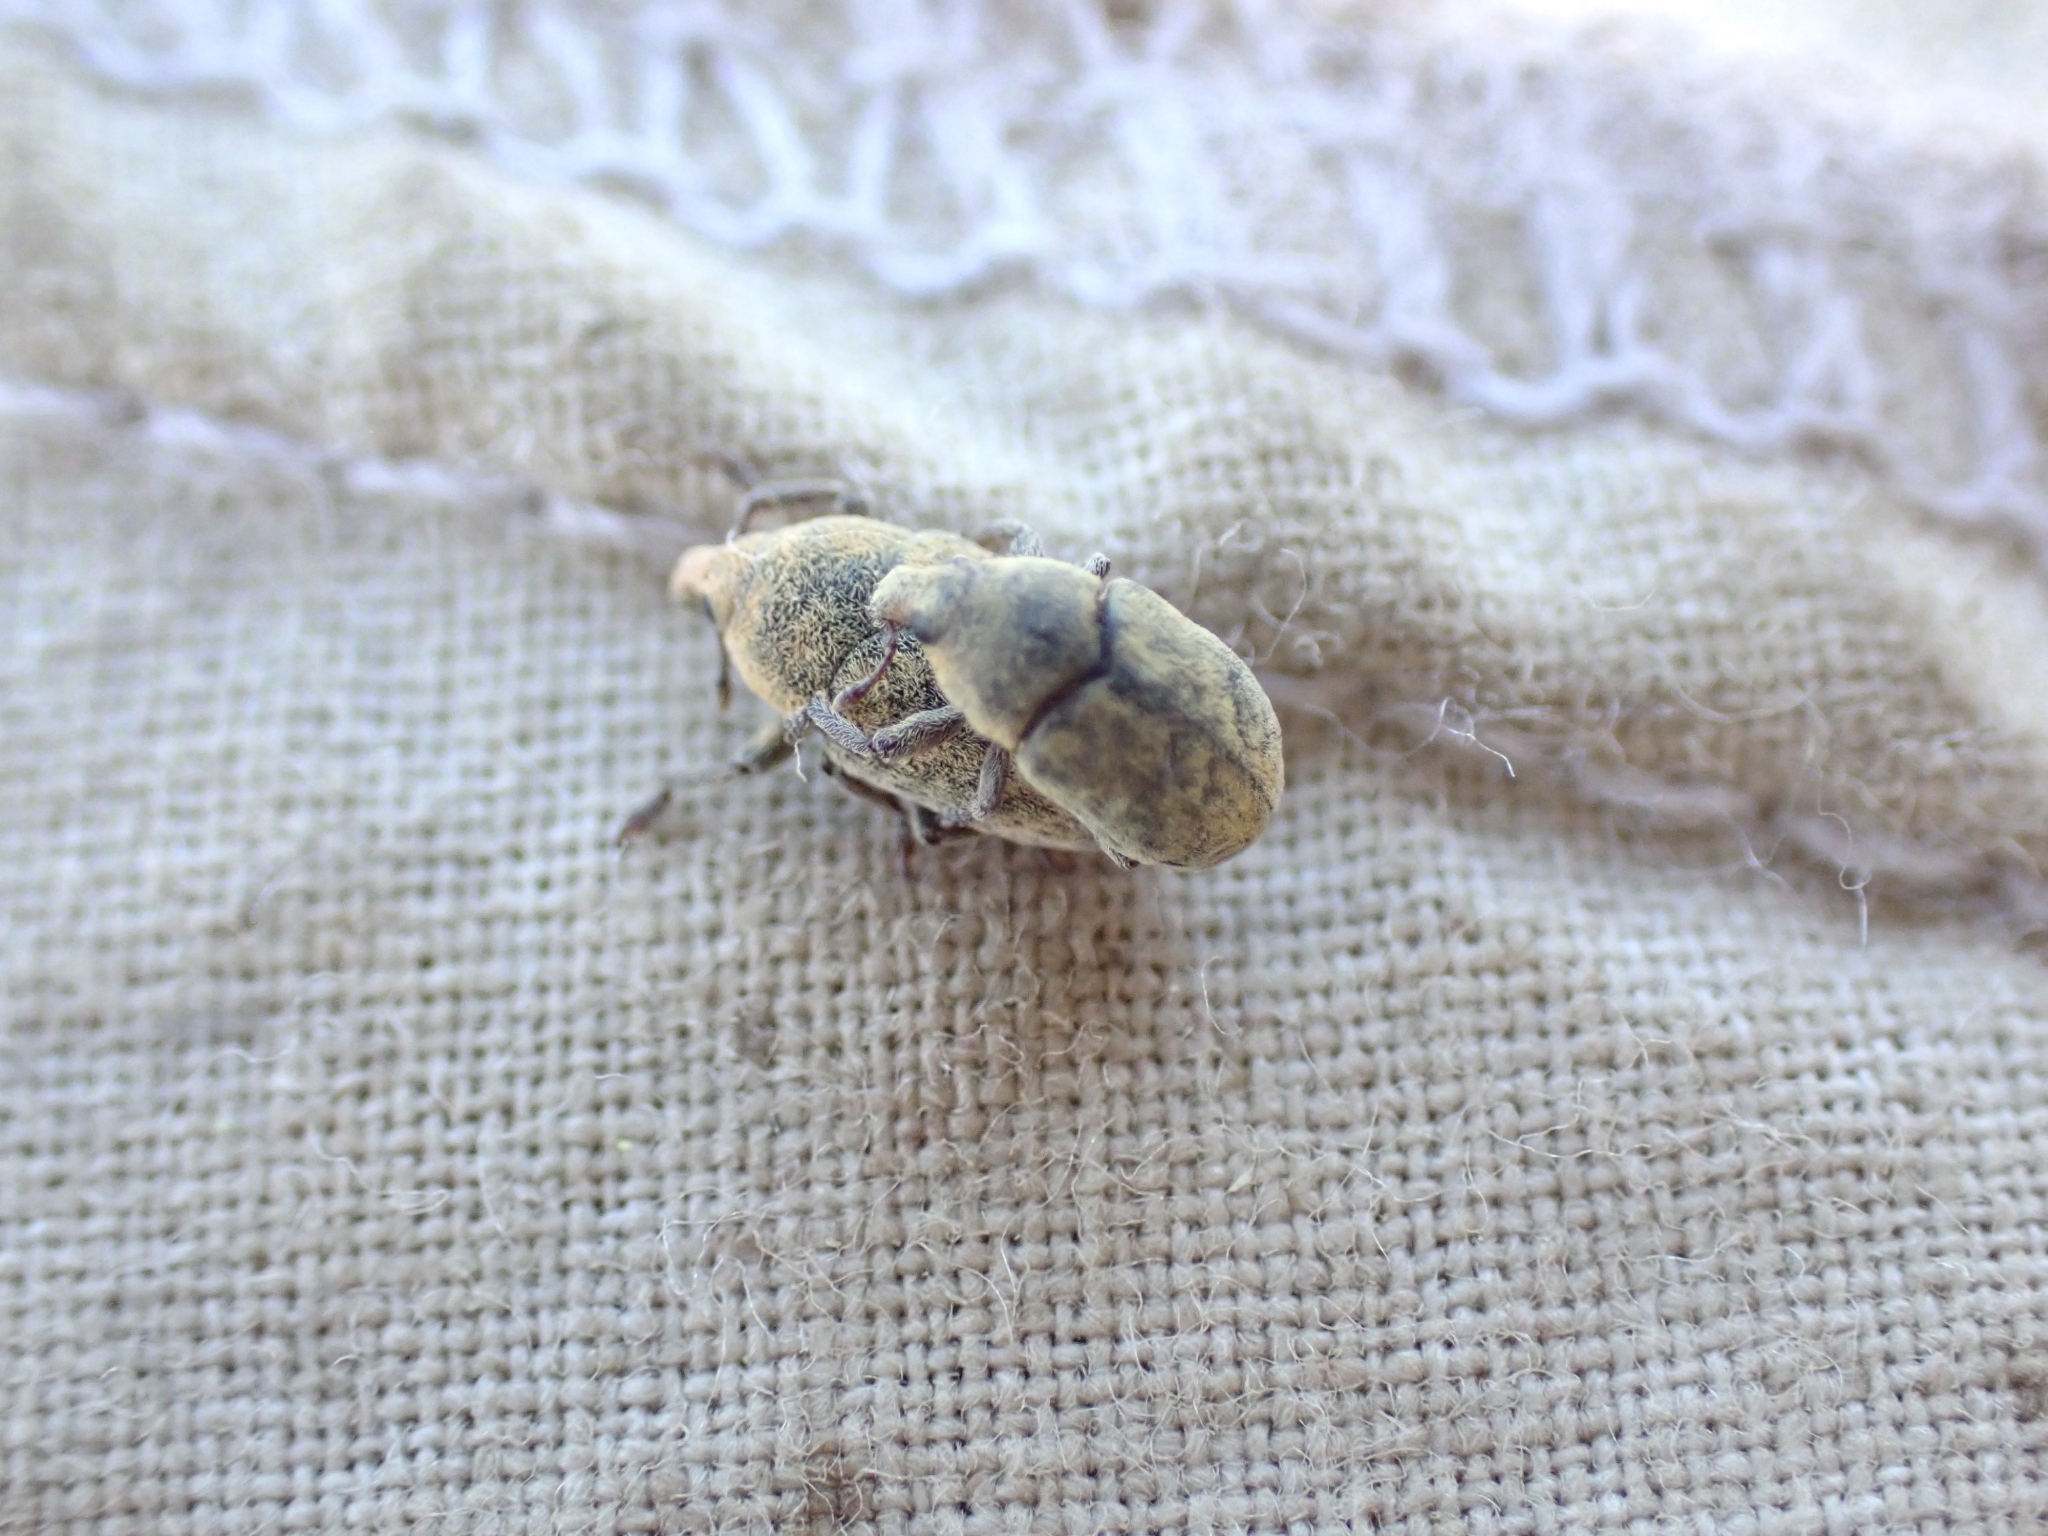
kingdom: Animalia
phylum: Arthropoda
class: Insecta
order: Coleoptera
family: Curculionidae
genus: Larinus
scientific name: Larinus minutus
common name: Weevil
